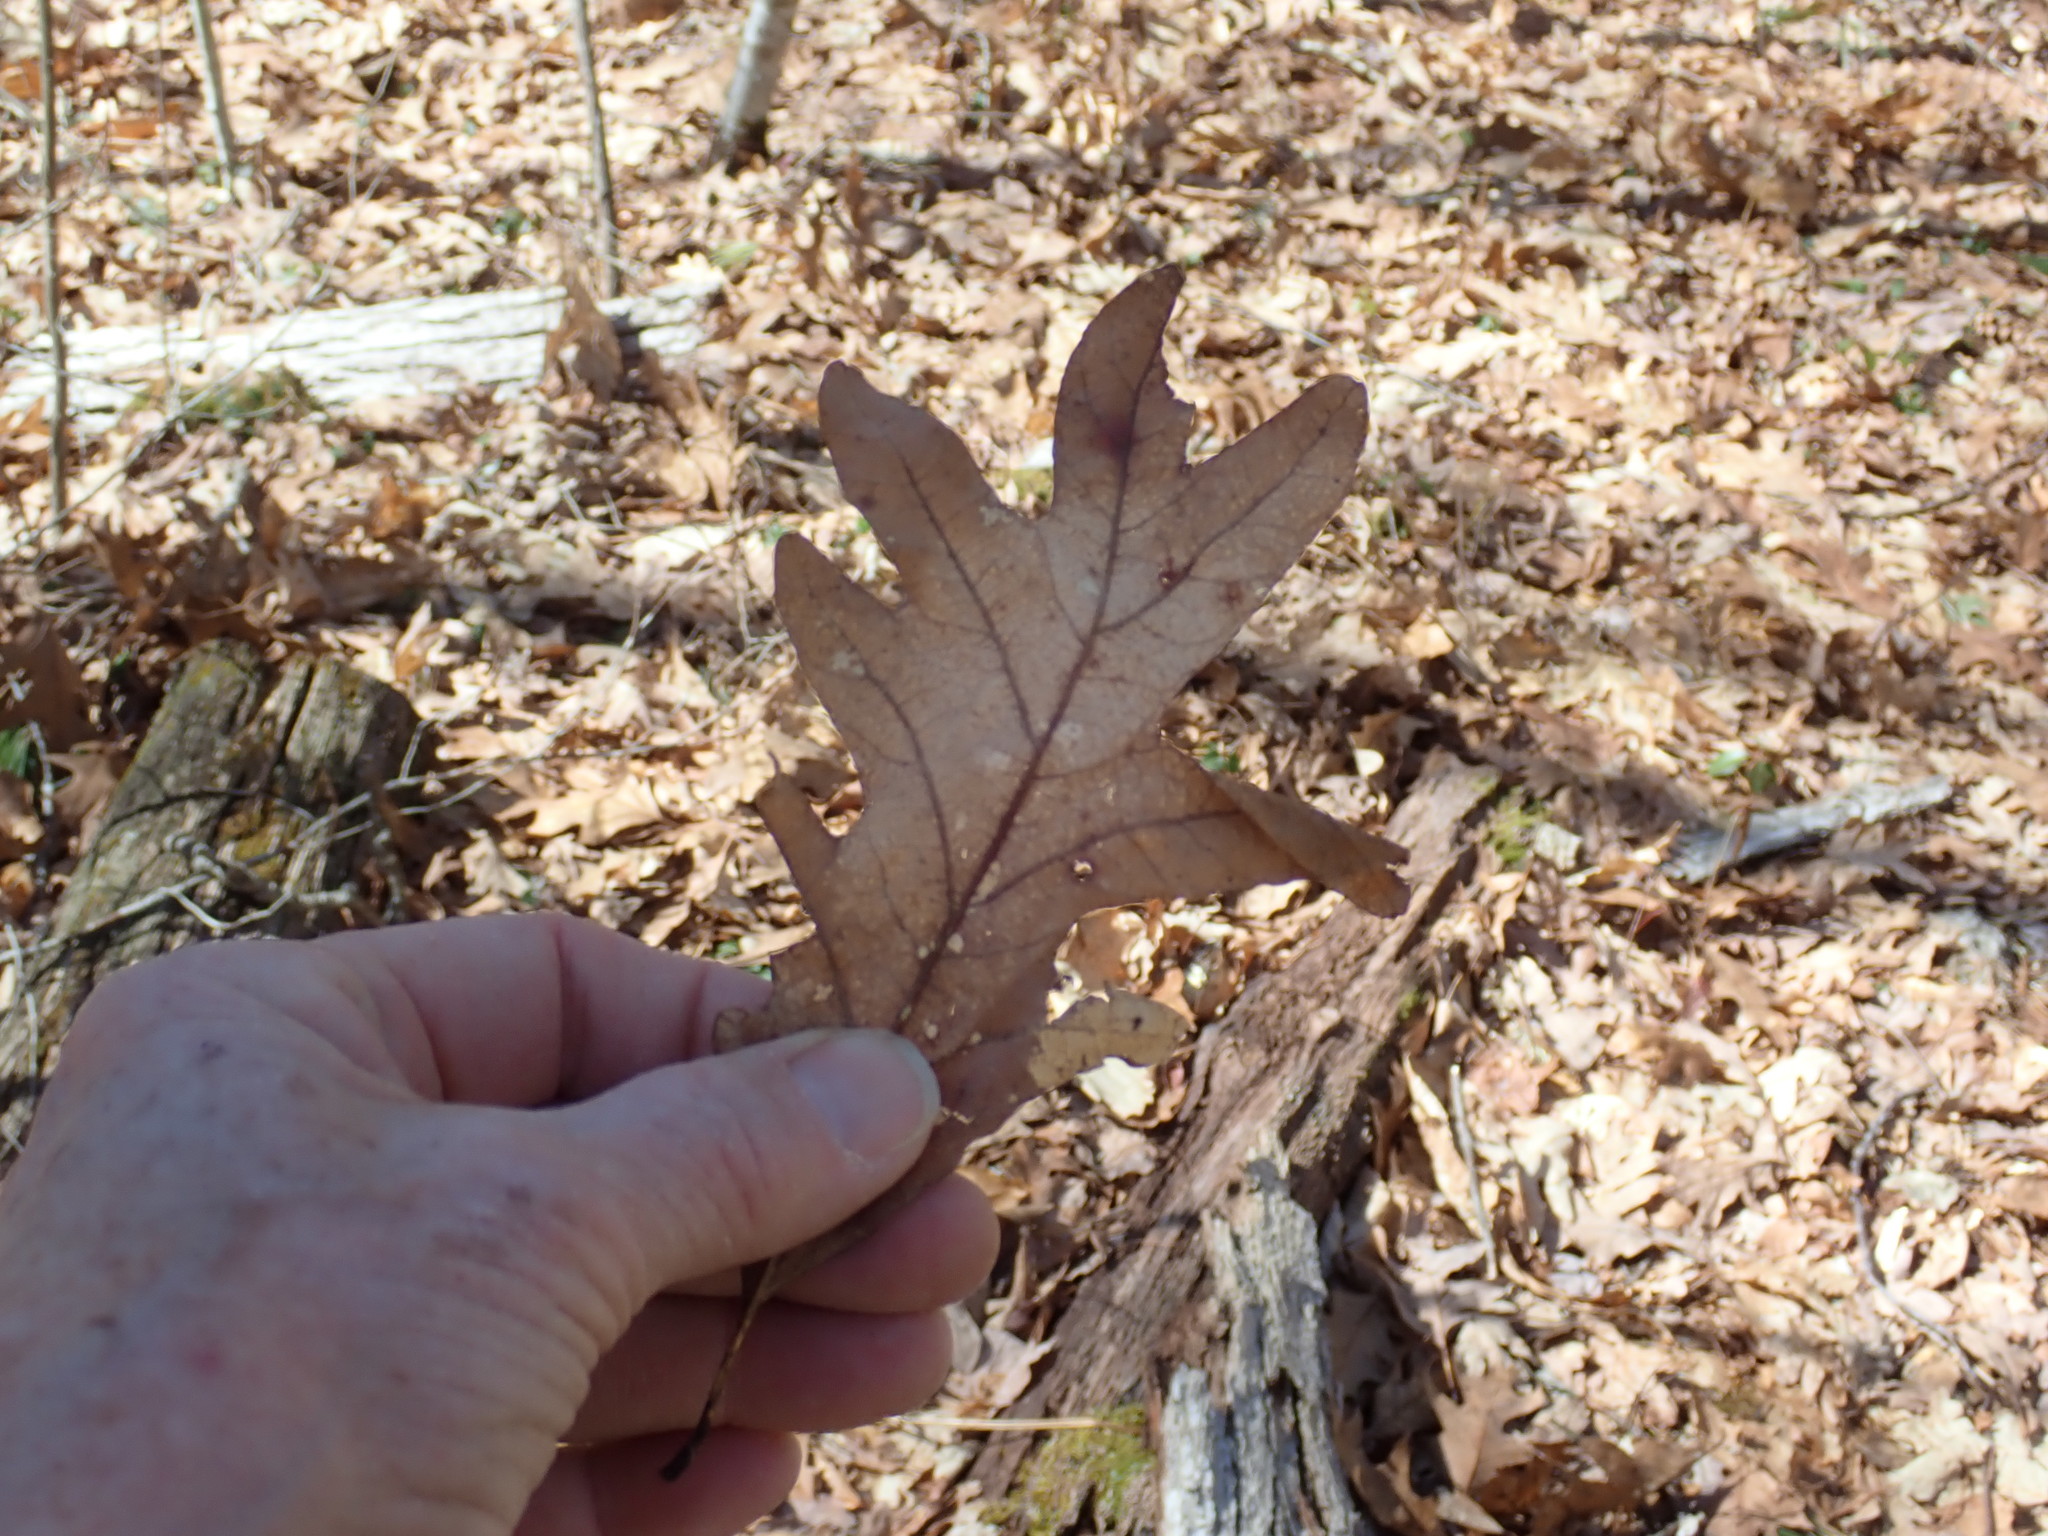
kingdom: Plantae
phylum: Tracheophyta
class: Magnoliopsida
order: Fagales
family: Fagaceae
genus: Quercus
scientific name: Quercus alba
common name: White oak
